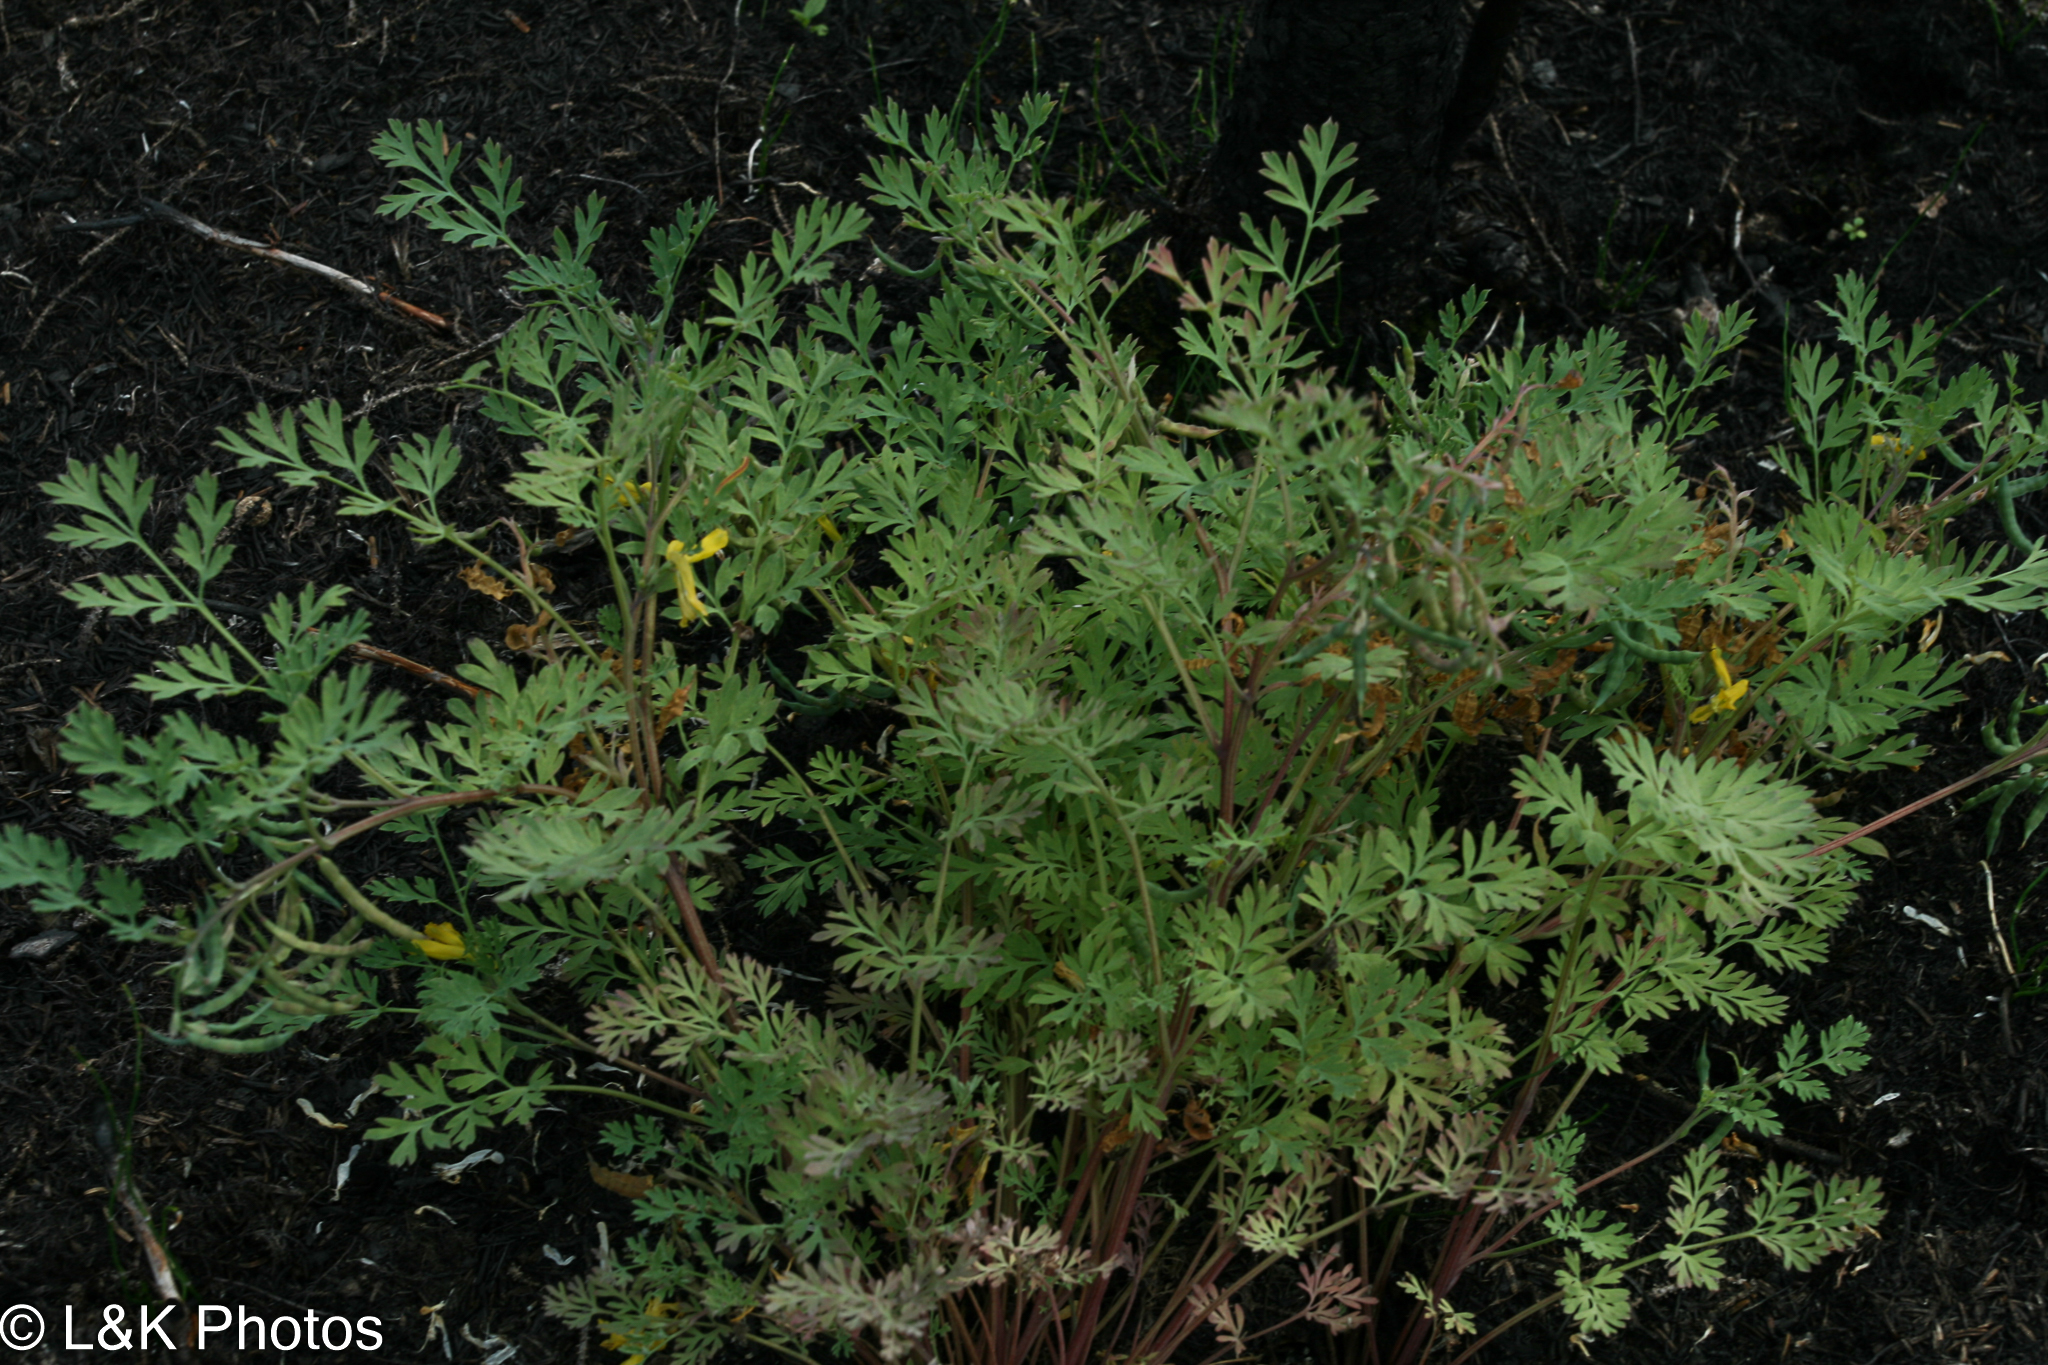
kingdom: Plantae
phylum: Tracheophyta
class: Magnoliopsida
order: Ranunculales
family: Papaveraceae
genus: Corydalis
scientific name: Corydalis aurea
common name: Golden corydalis
